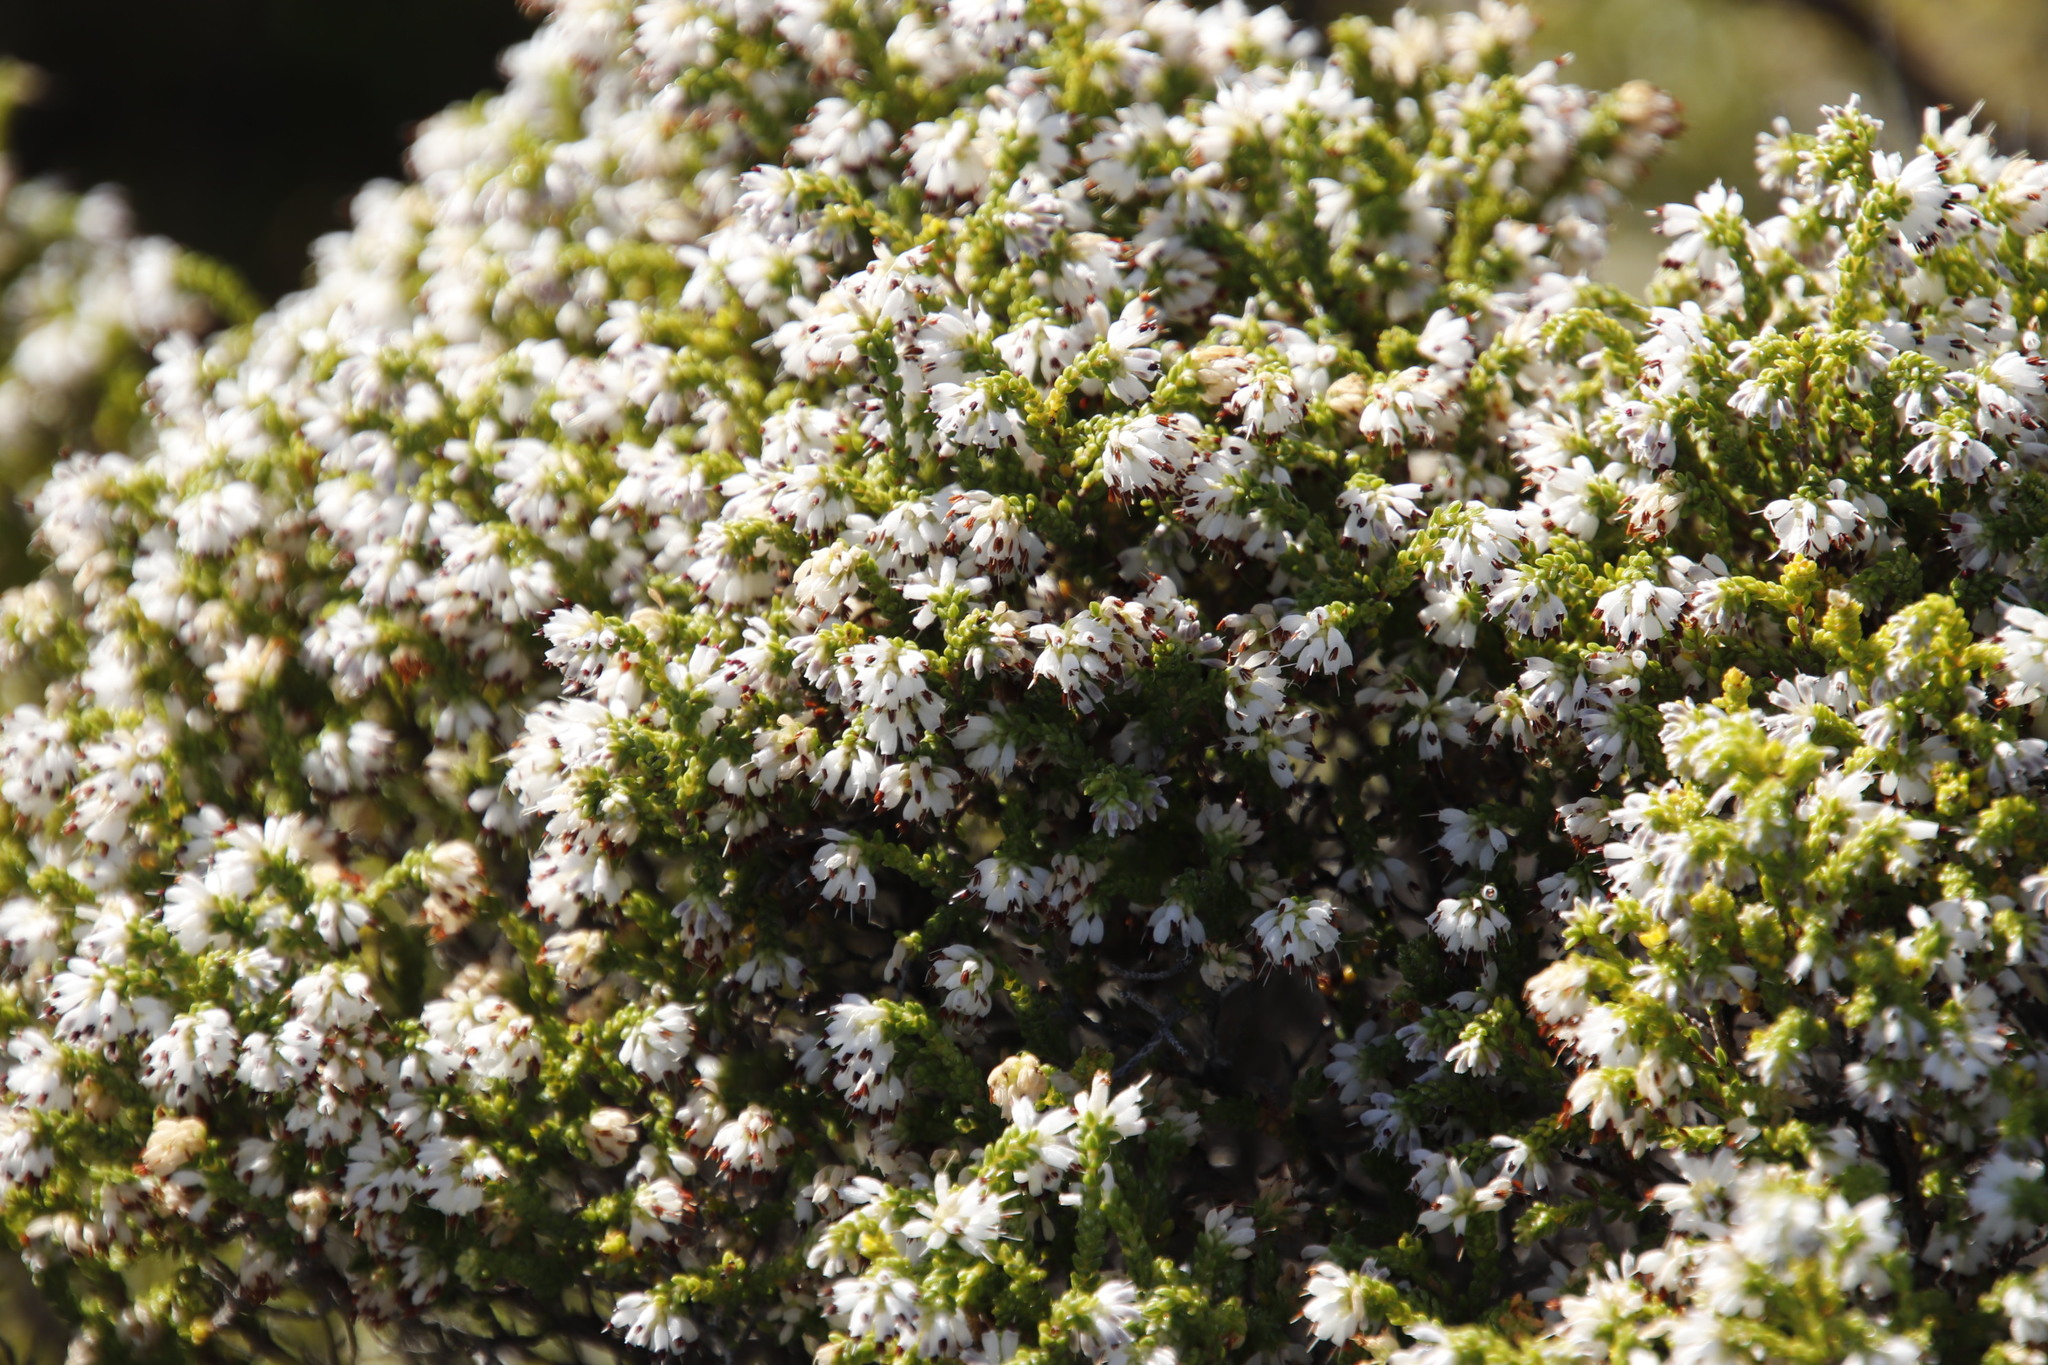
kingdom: Plantae
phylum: Tracheophyta
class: Magnoliopsida
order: Ericales
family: Ericaceae
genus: Erica
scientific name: Erica labialis
